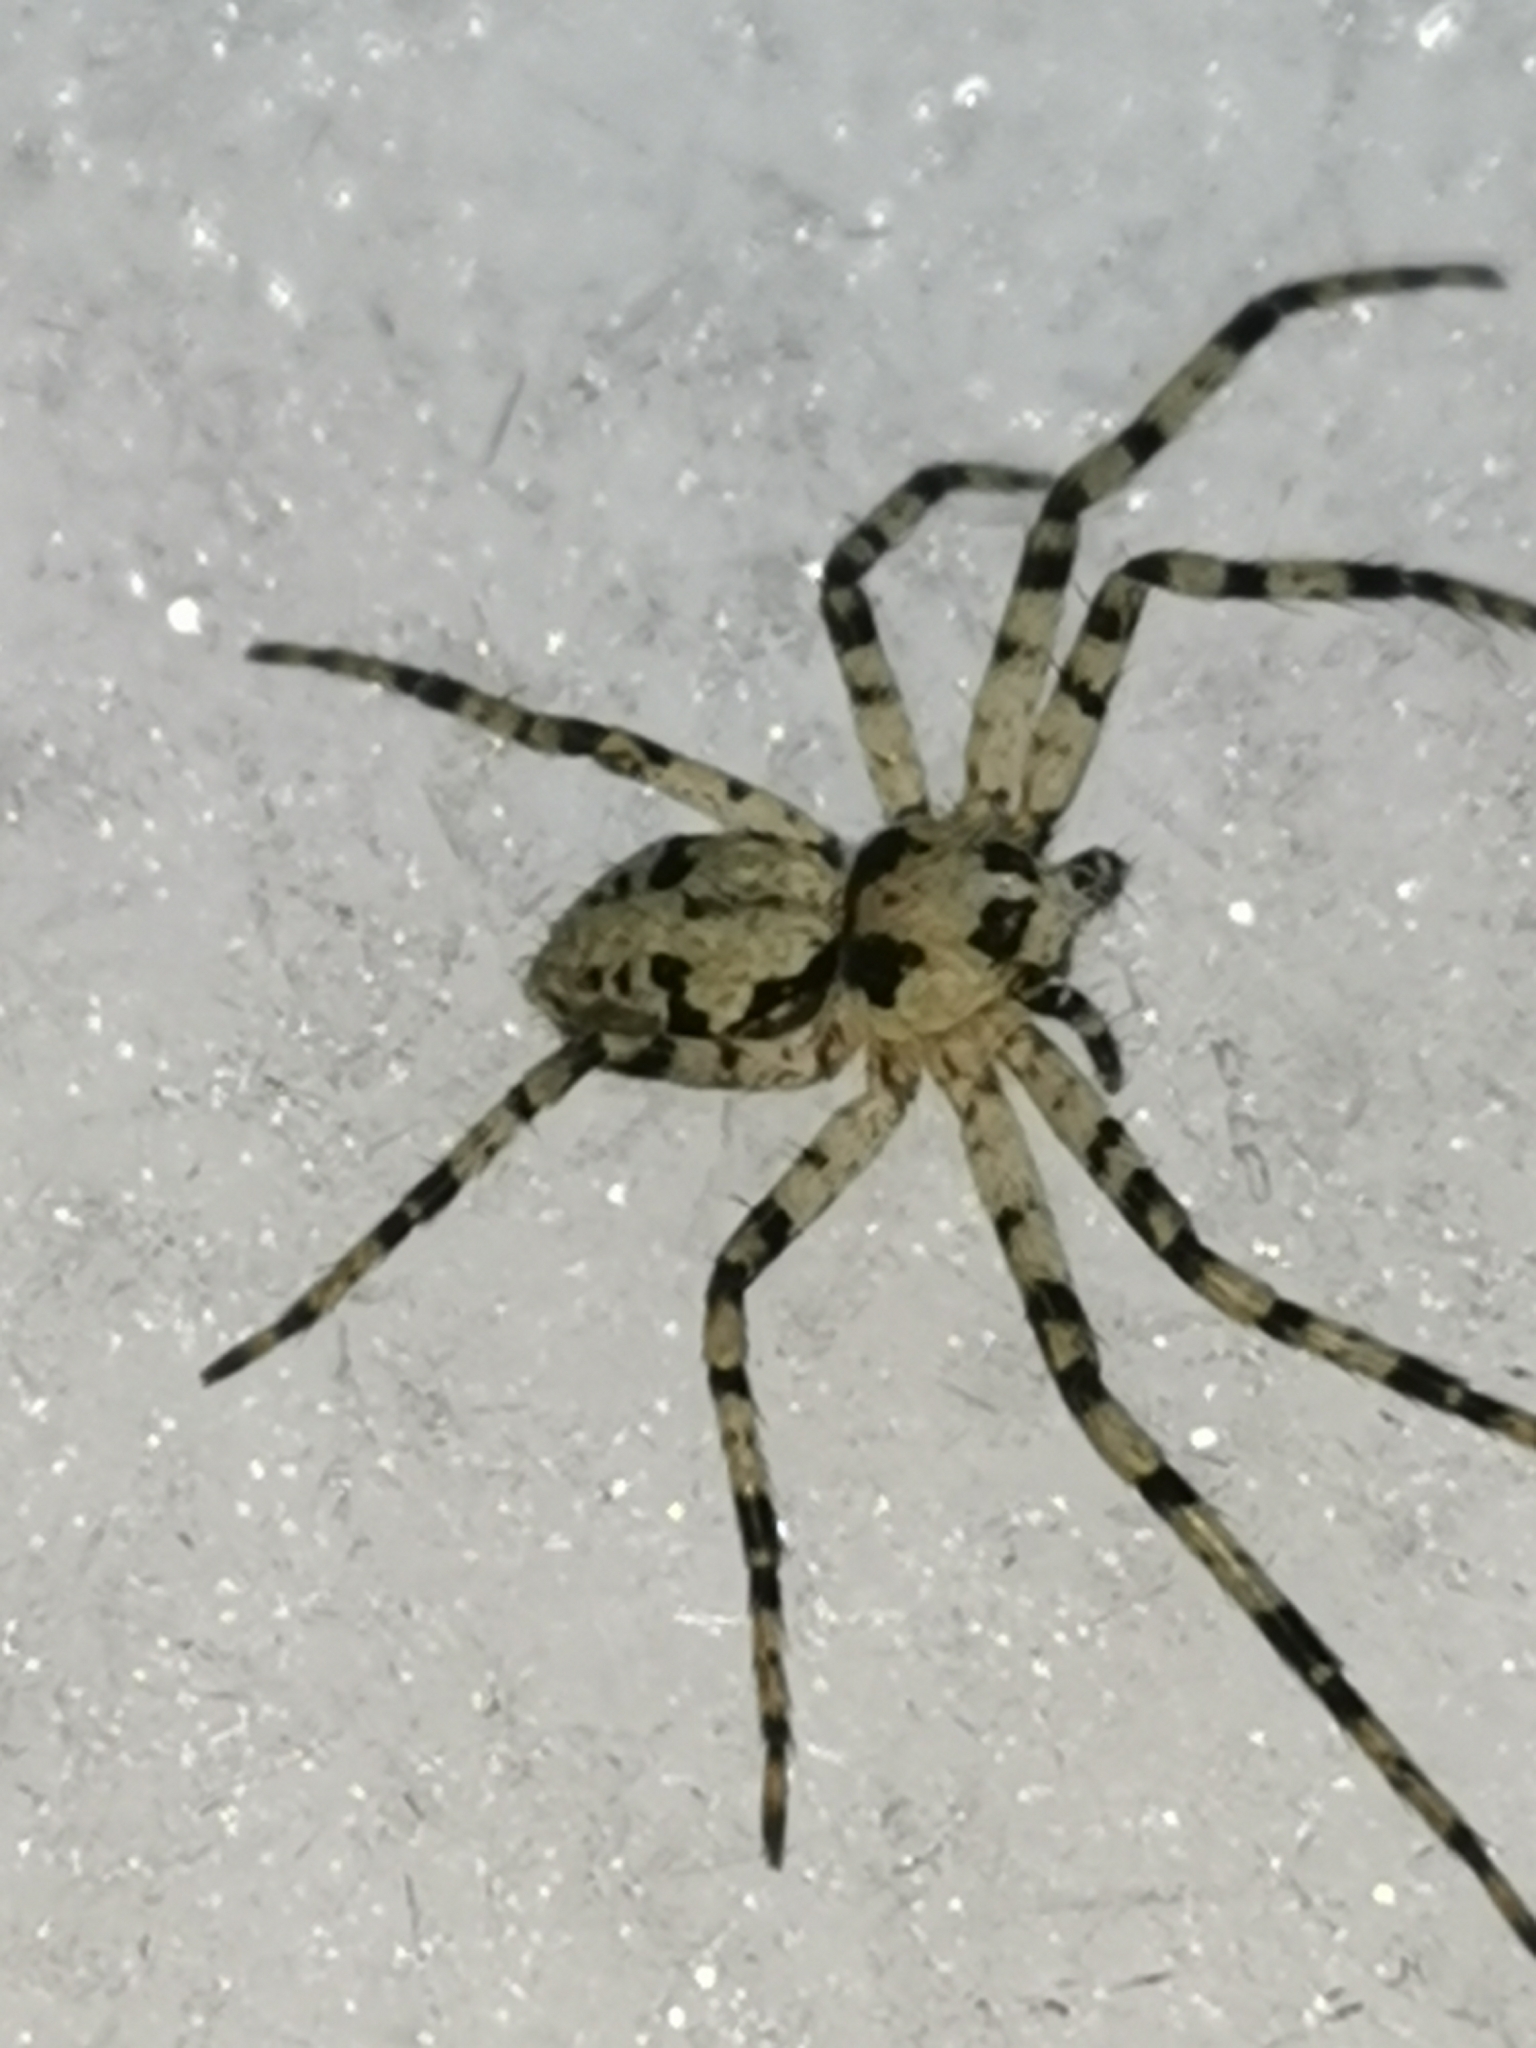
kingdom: Animalia
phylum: Arthropoda
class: Arachnida
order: Araneae
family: Philodromidae
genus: Philodromus
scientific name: Philodromus margaritatus
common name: Lichen running-spider
